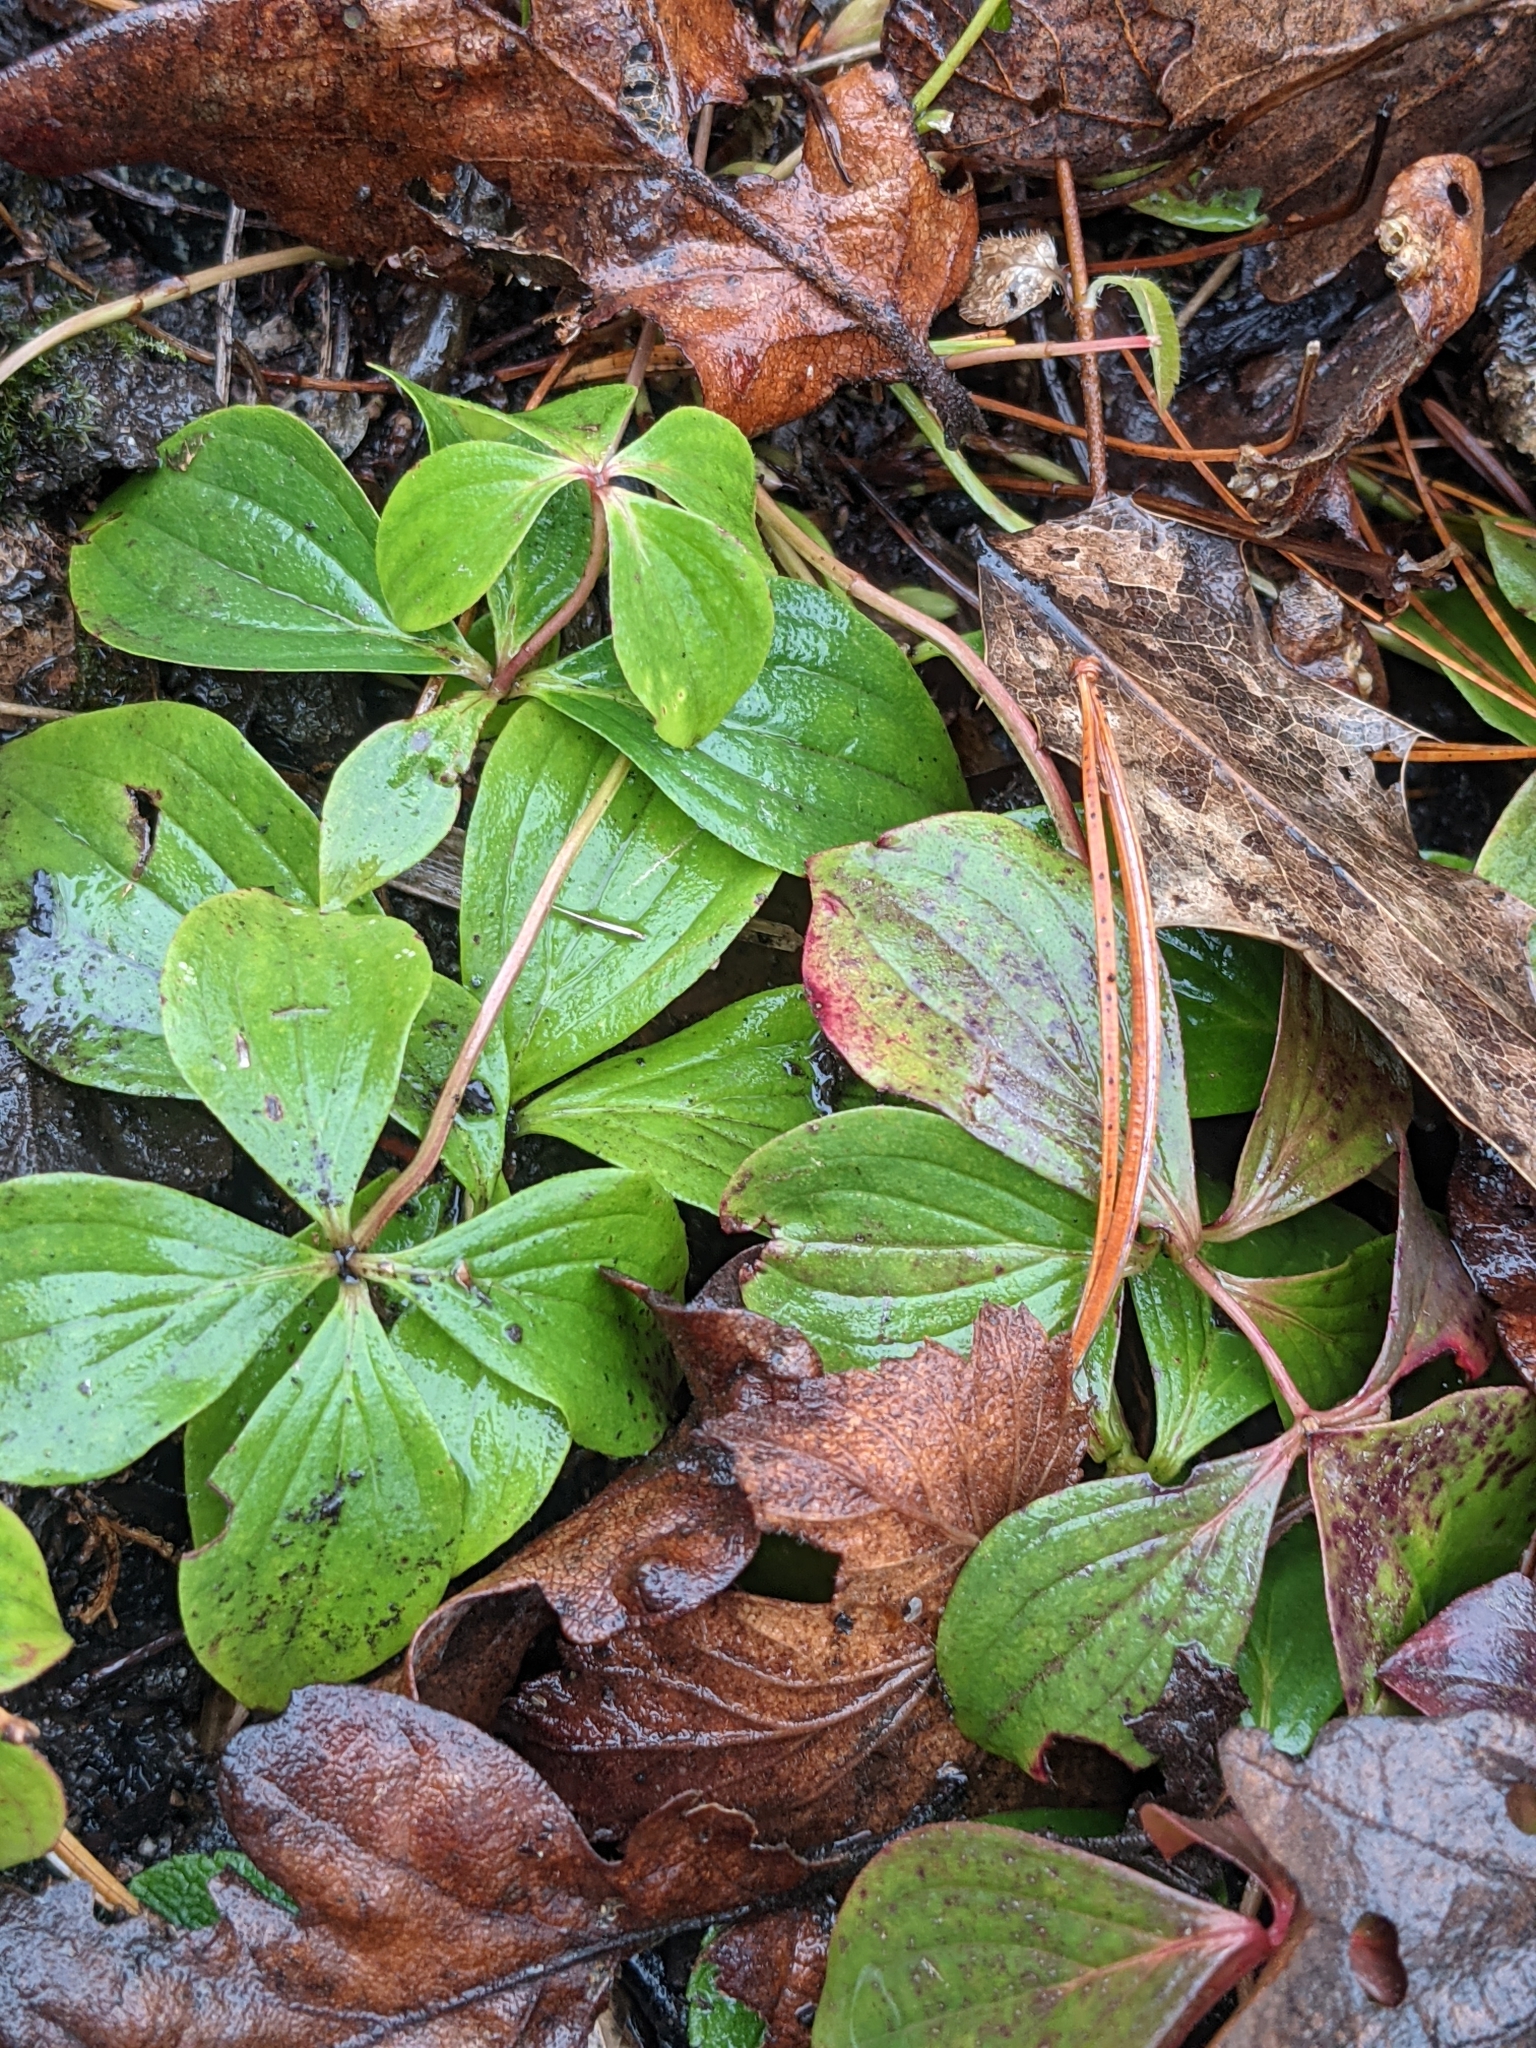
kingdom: Plantae
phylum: Tracheophyta
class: Magnoliopsida
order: Cornales
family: Cornaceae
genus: Cornus
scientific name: Cornus unalaschkensis
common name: Alaska bunchberry
